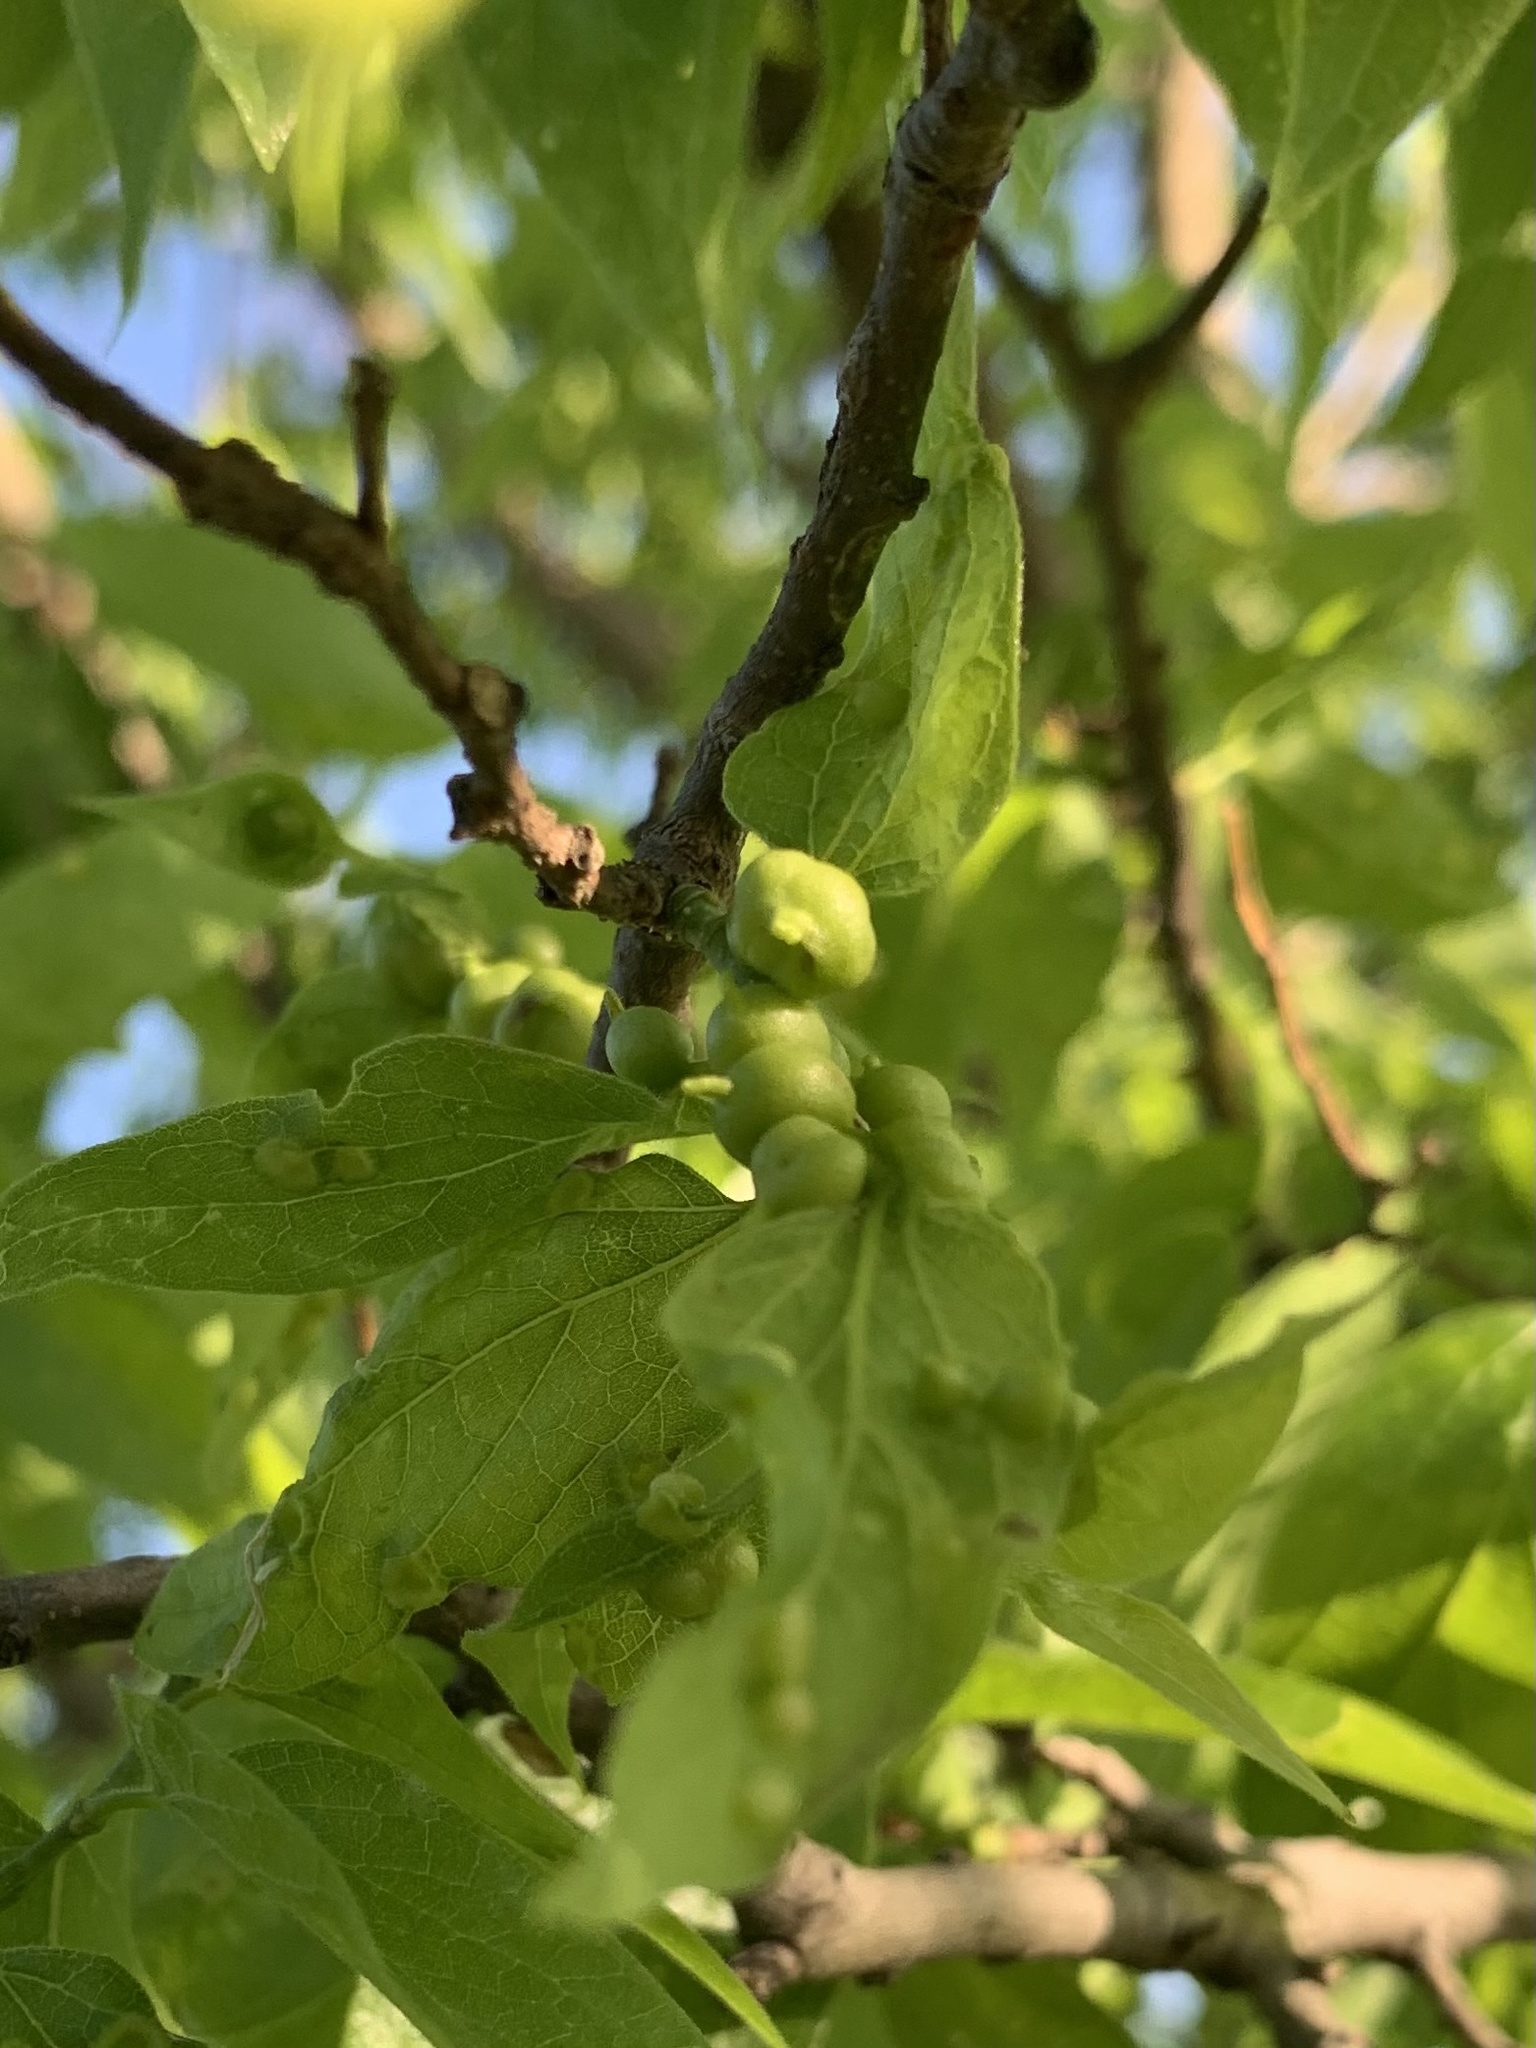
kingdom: Animalia
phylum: Arthropoda
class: Insecta
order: Diptera
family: Cecidomyiidae
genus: Celticecis
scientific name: Celticecis connata
